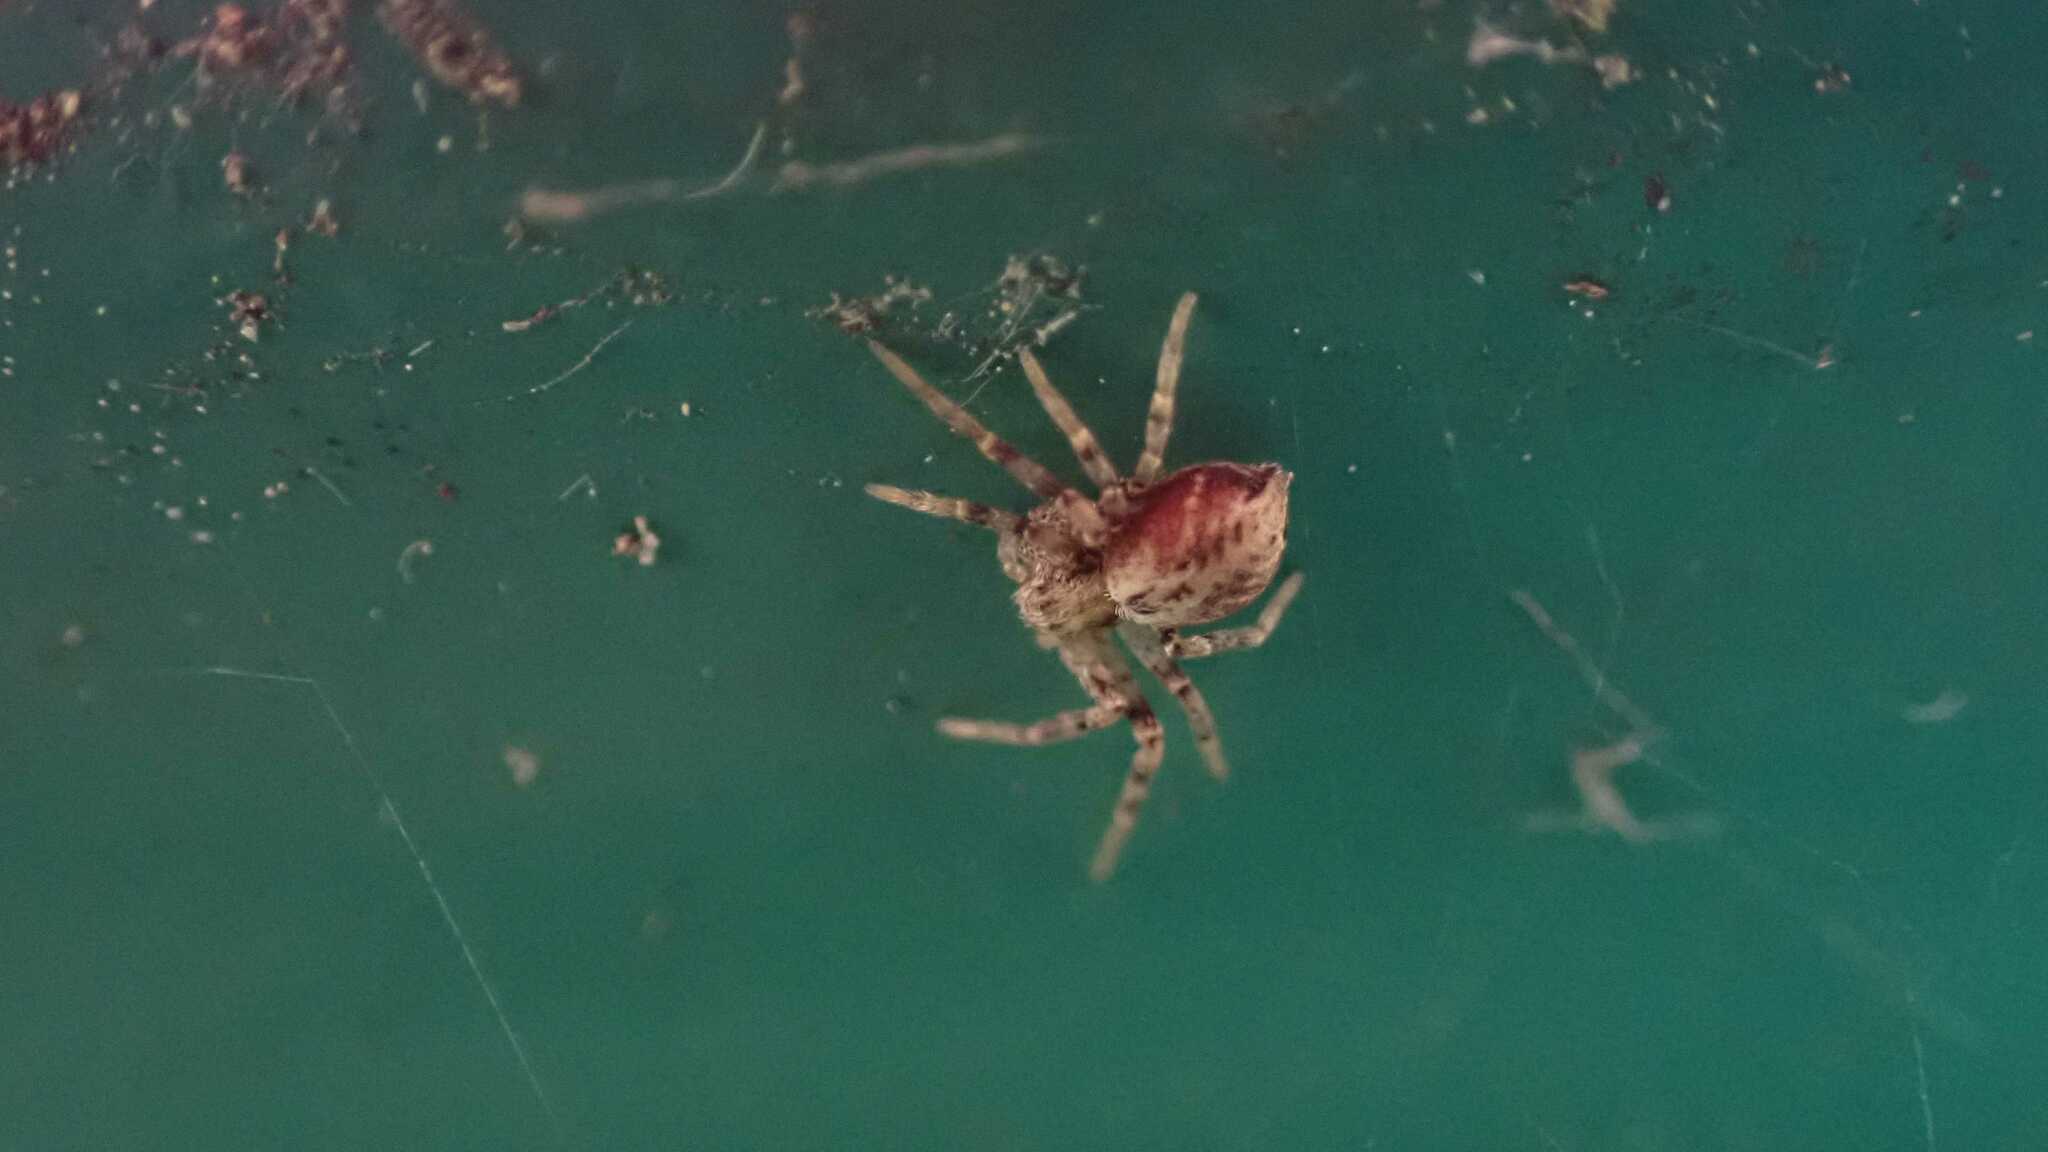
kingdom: Animalia
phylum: Arthropoda
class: Arachnida
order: Araneae
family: Philodromidae
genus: Philodromus
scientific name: Philodromus
